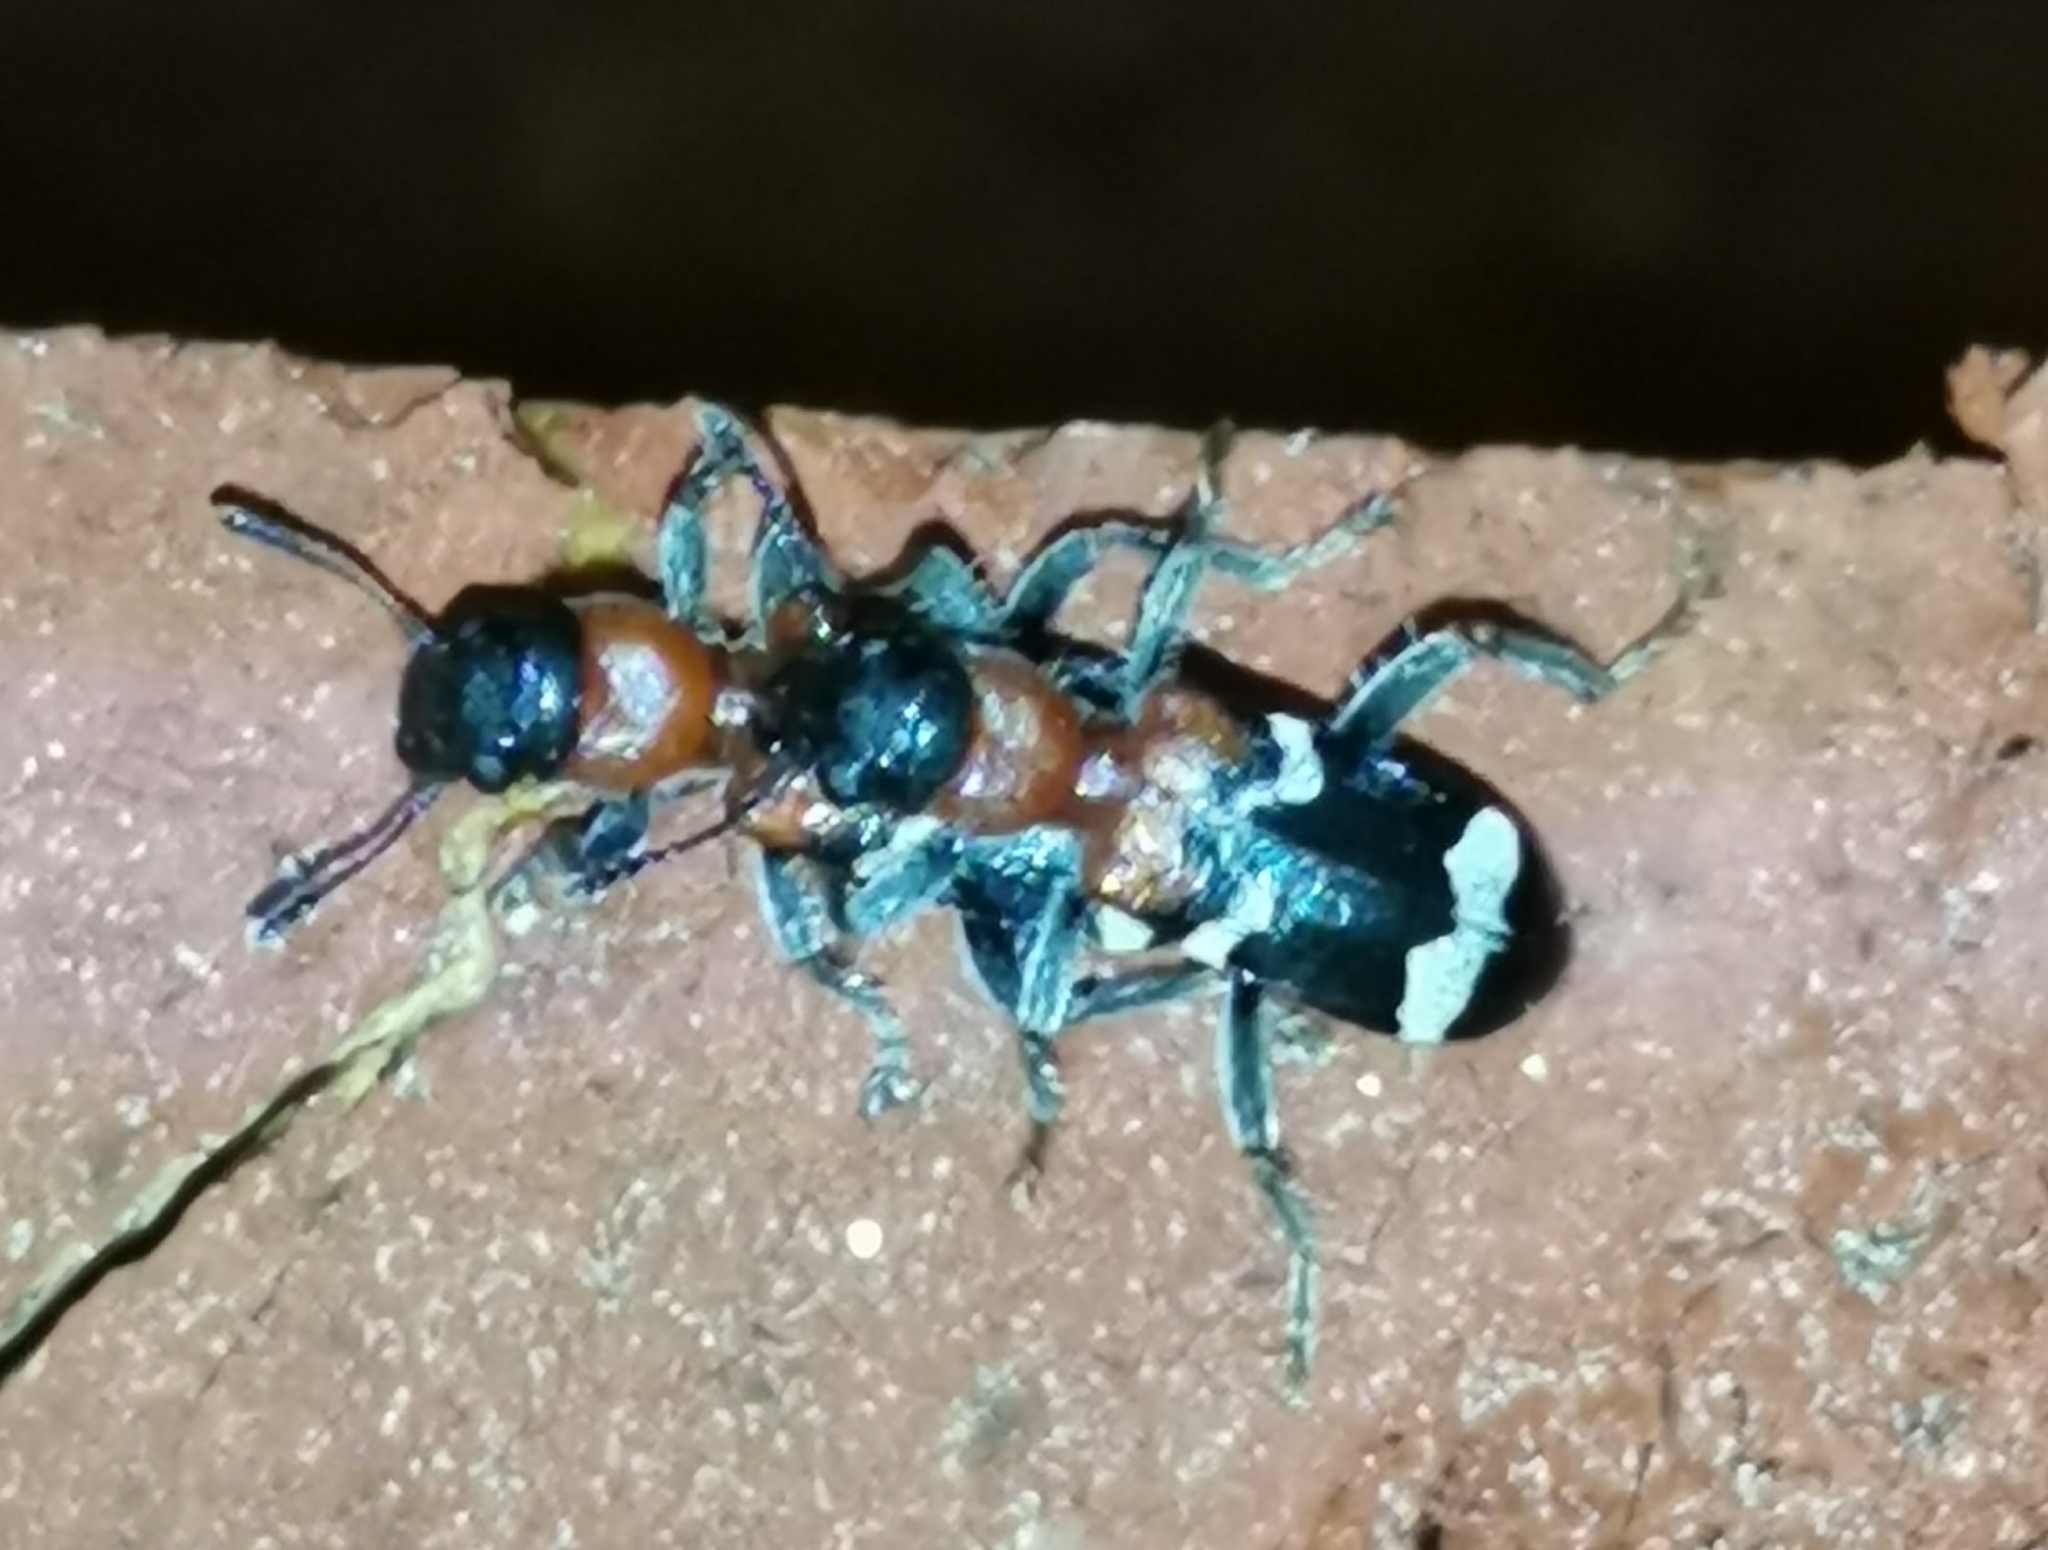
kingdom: Animalia
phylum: Arthropoda
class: Insecta
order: Coleoptera
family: Cleridae
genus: Thanasimus
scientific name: Thanasimus formicarius
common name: Ant beetle
